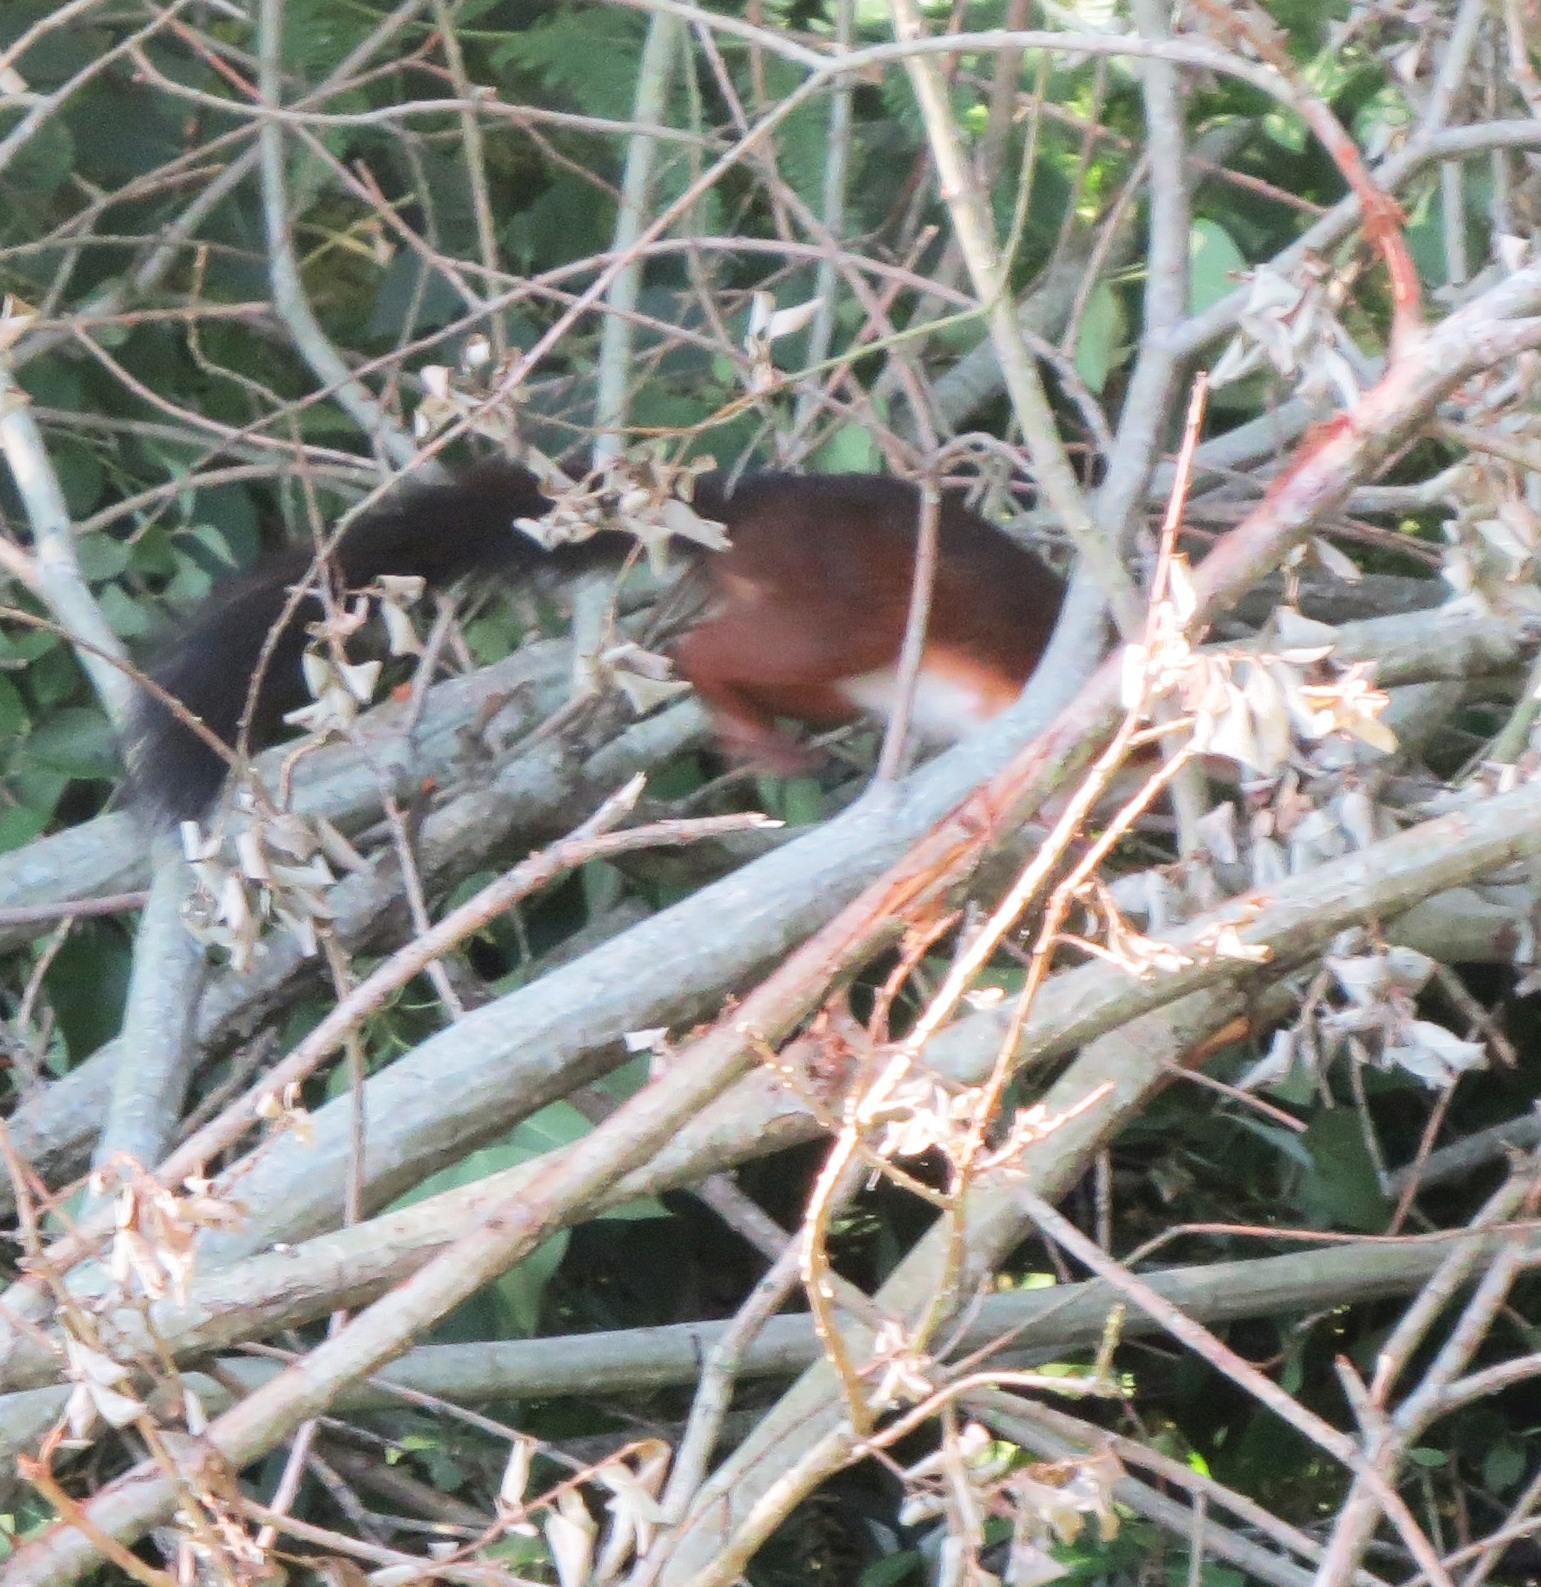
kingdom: Animalia
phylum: Chordata
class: Mammalia
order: Rodentia
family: Sciuridae
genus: Sciurus
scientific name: Sciurus vulgaris
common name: Eurasian red squirrel
